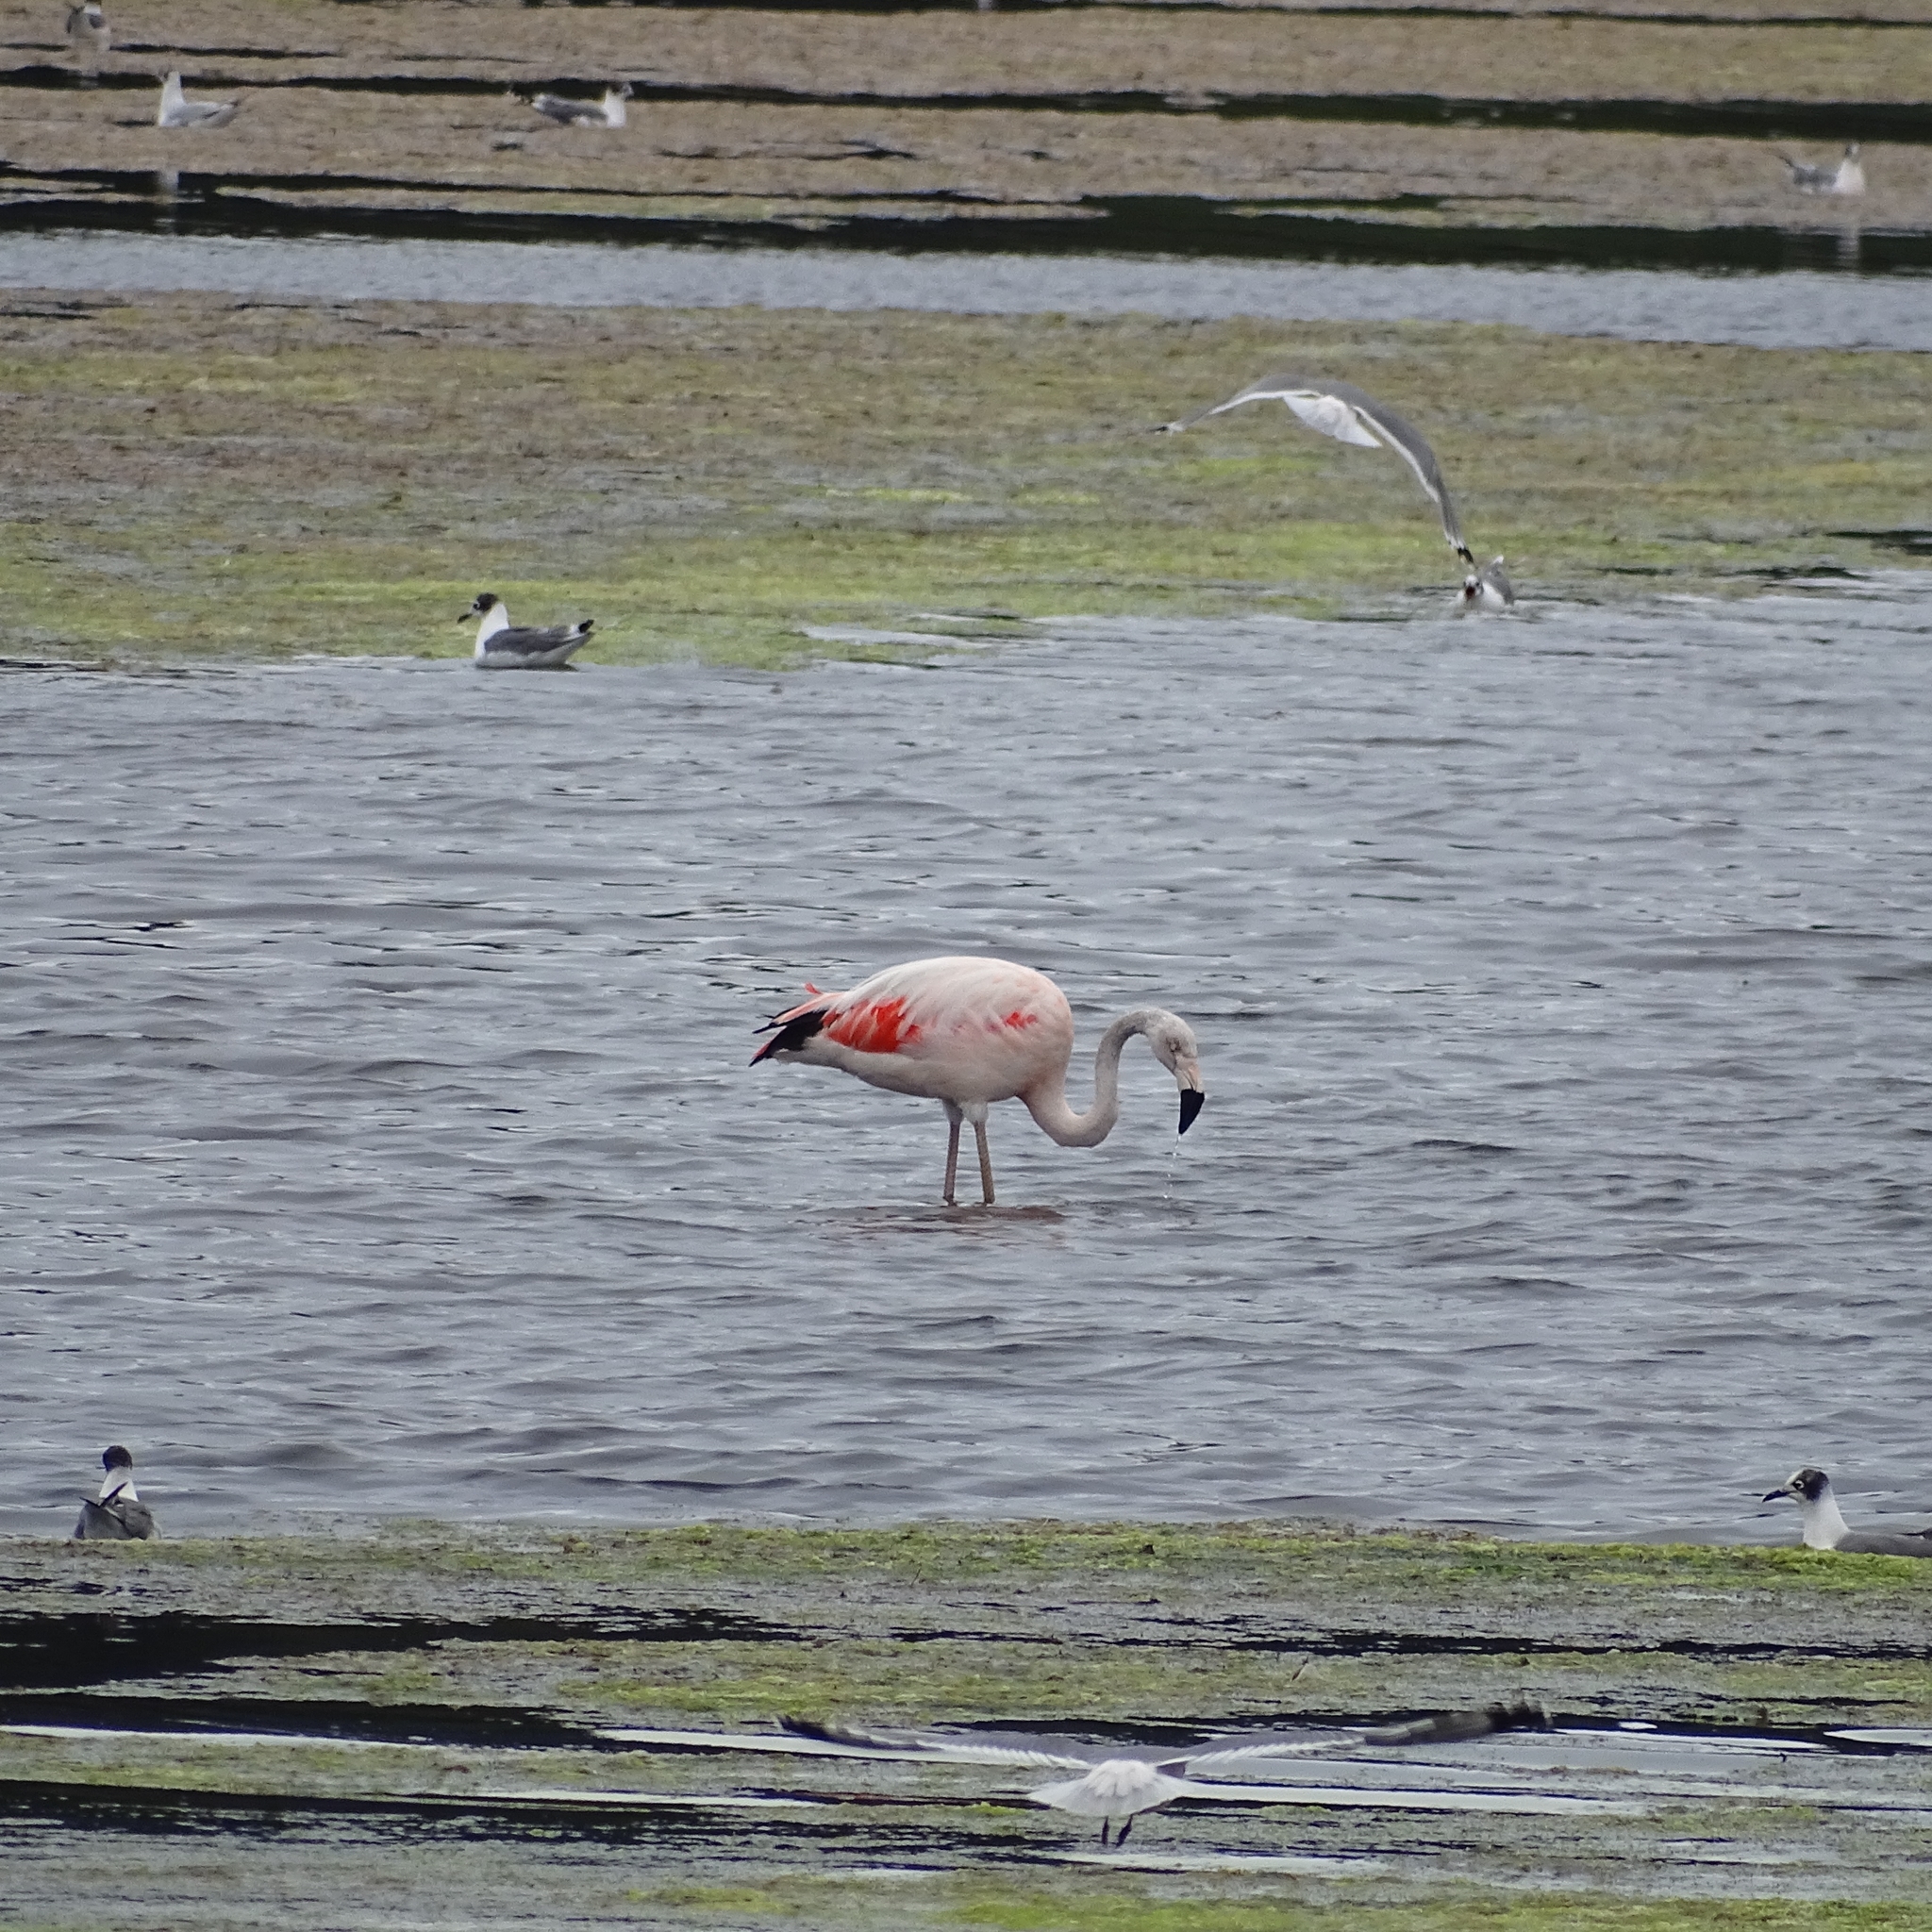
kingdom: Animalia
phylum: Chordata
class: Aves
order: Phoenicopteriformes
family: Phoenicopteridae
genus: Phoenicopterus
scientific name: Phoenicopterus chilensis
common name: Chilean flamingo
